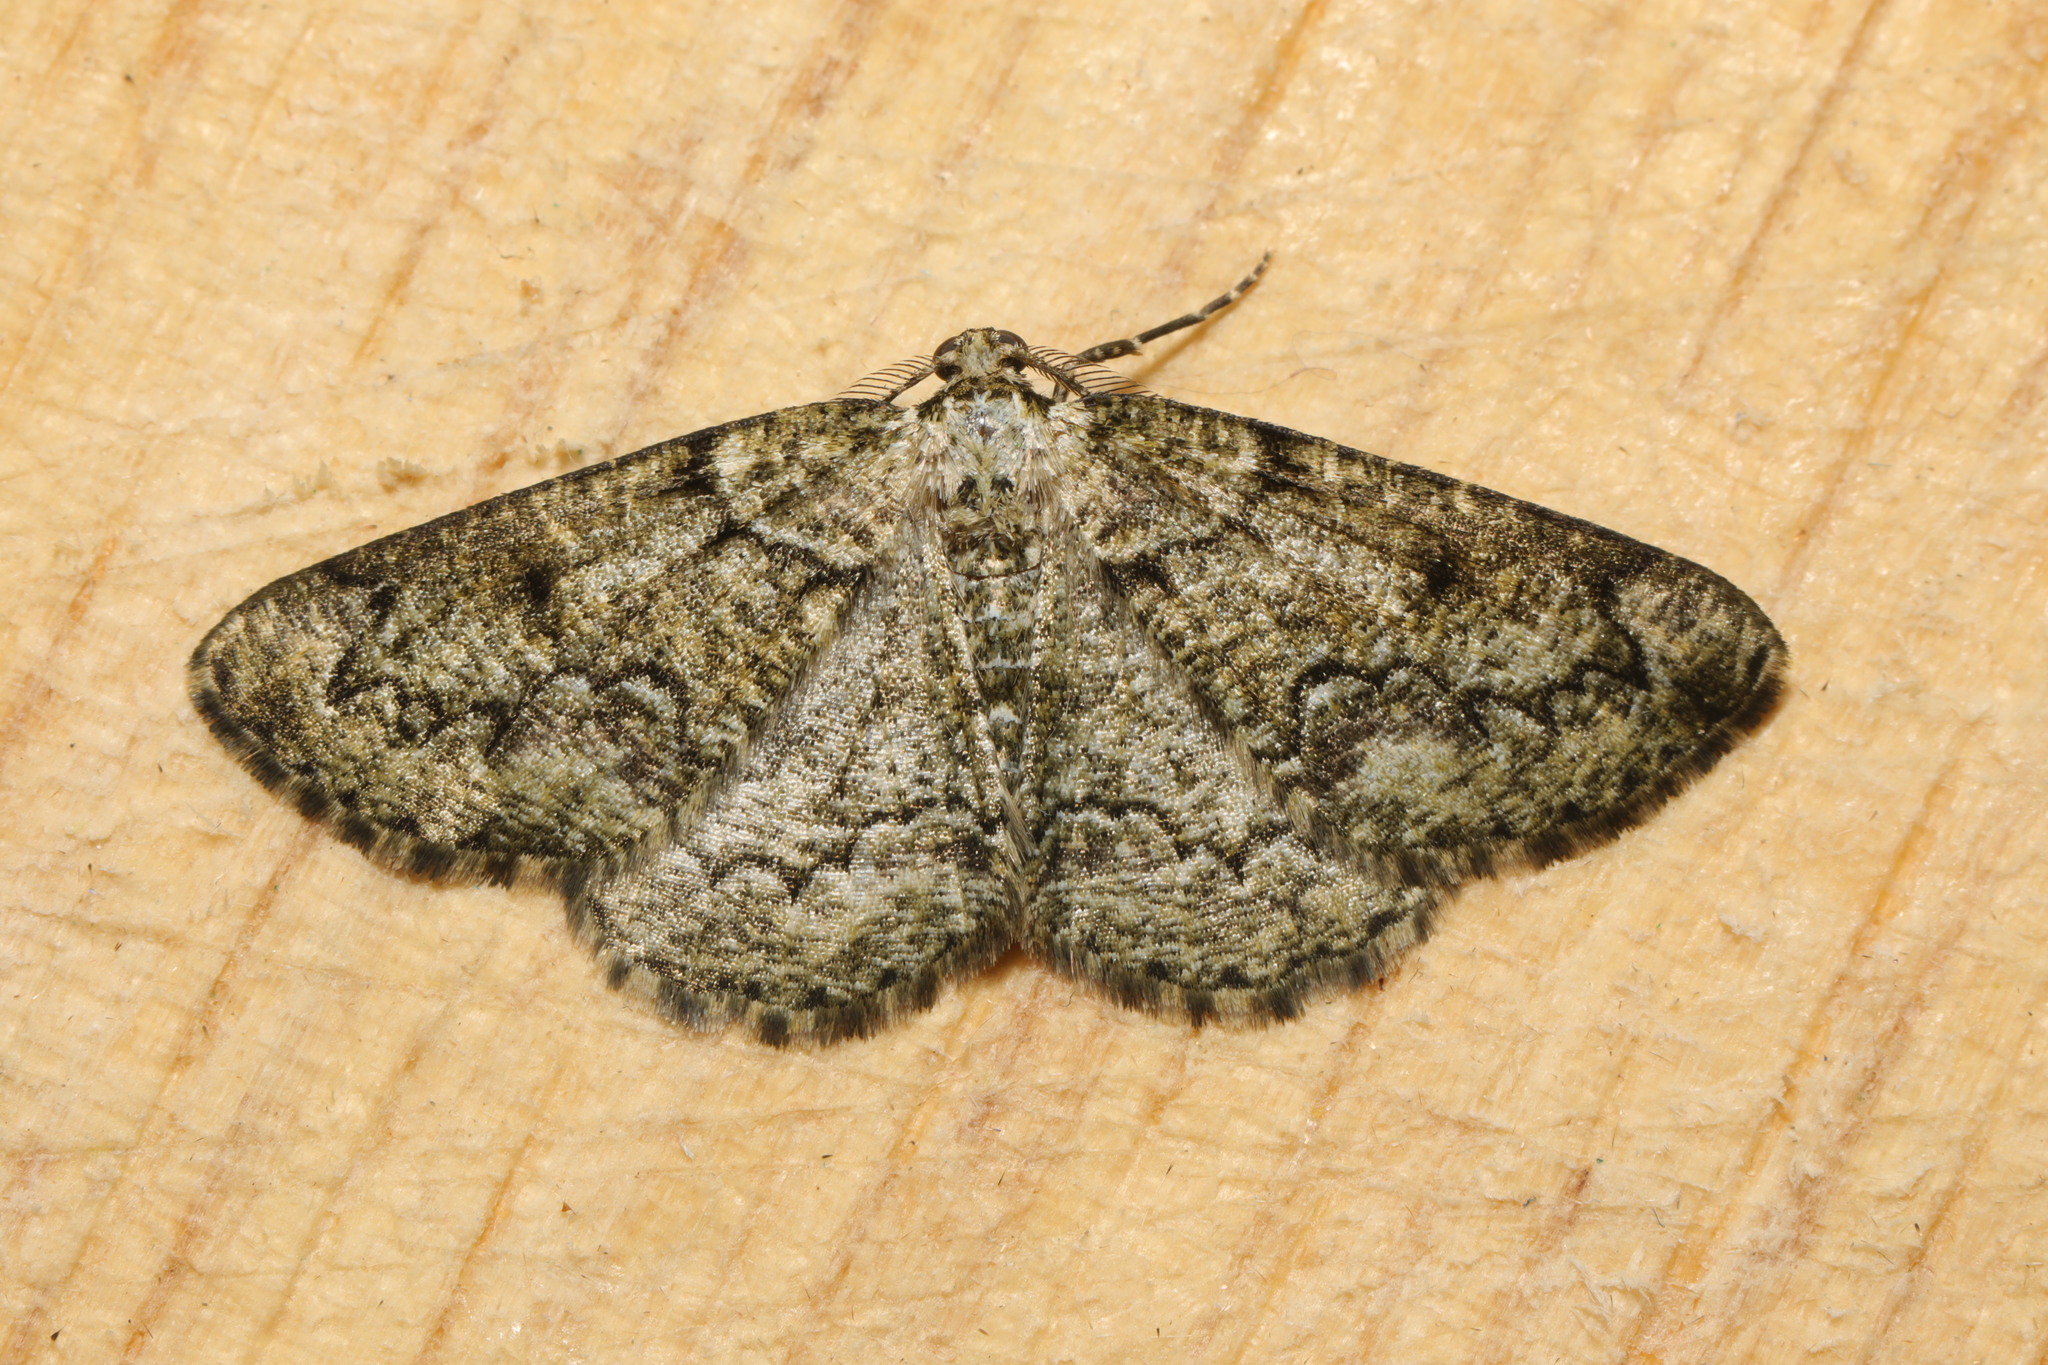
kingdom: Animalia
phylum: Arthropoda
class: Insecta
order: Lepidoptera
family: Geometridae
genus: Cleorodes
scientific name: Cleorodes lichenaria
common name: Brussels lace
